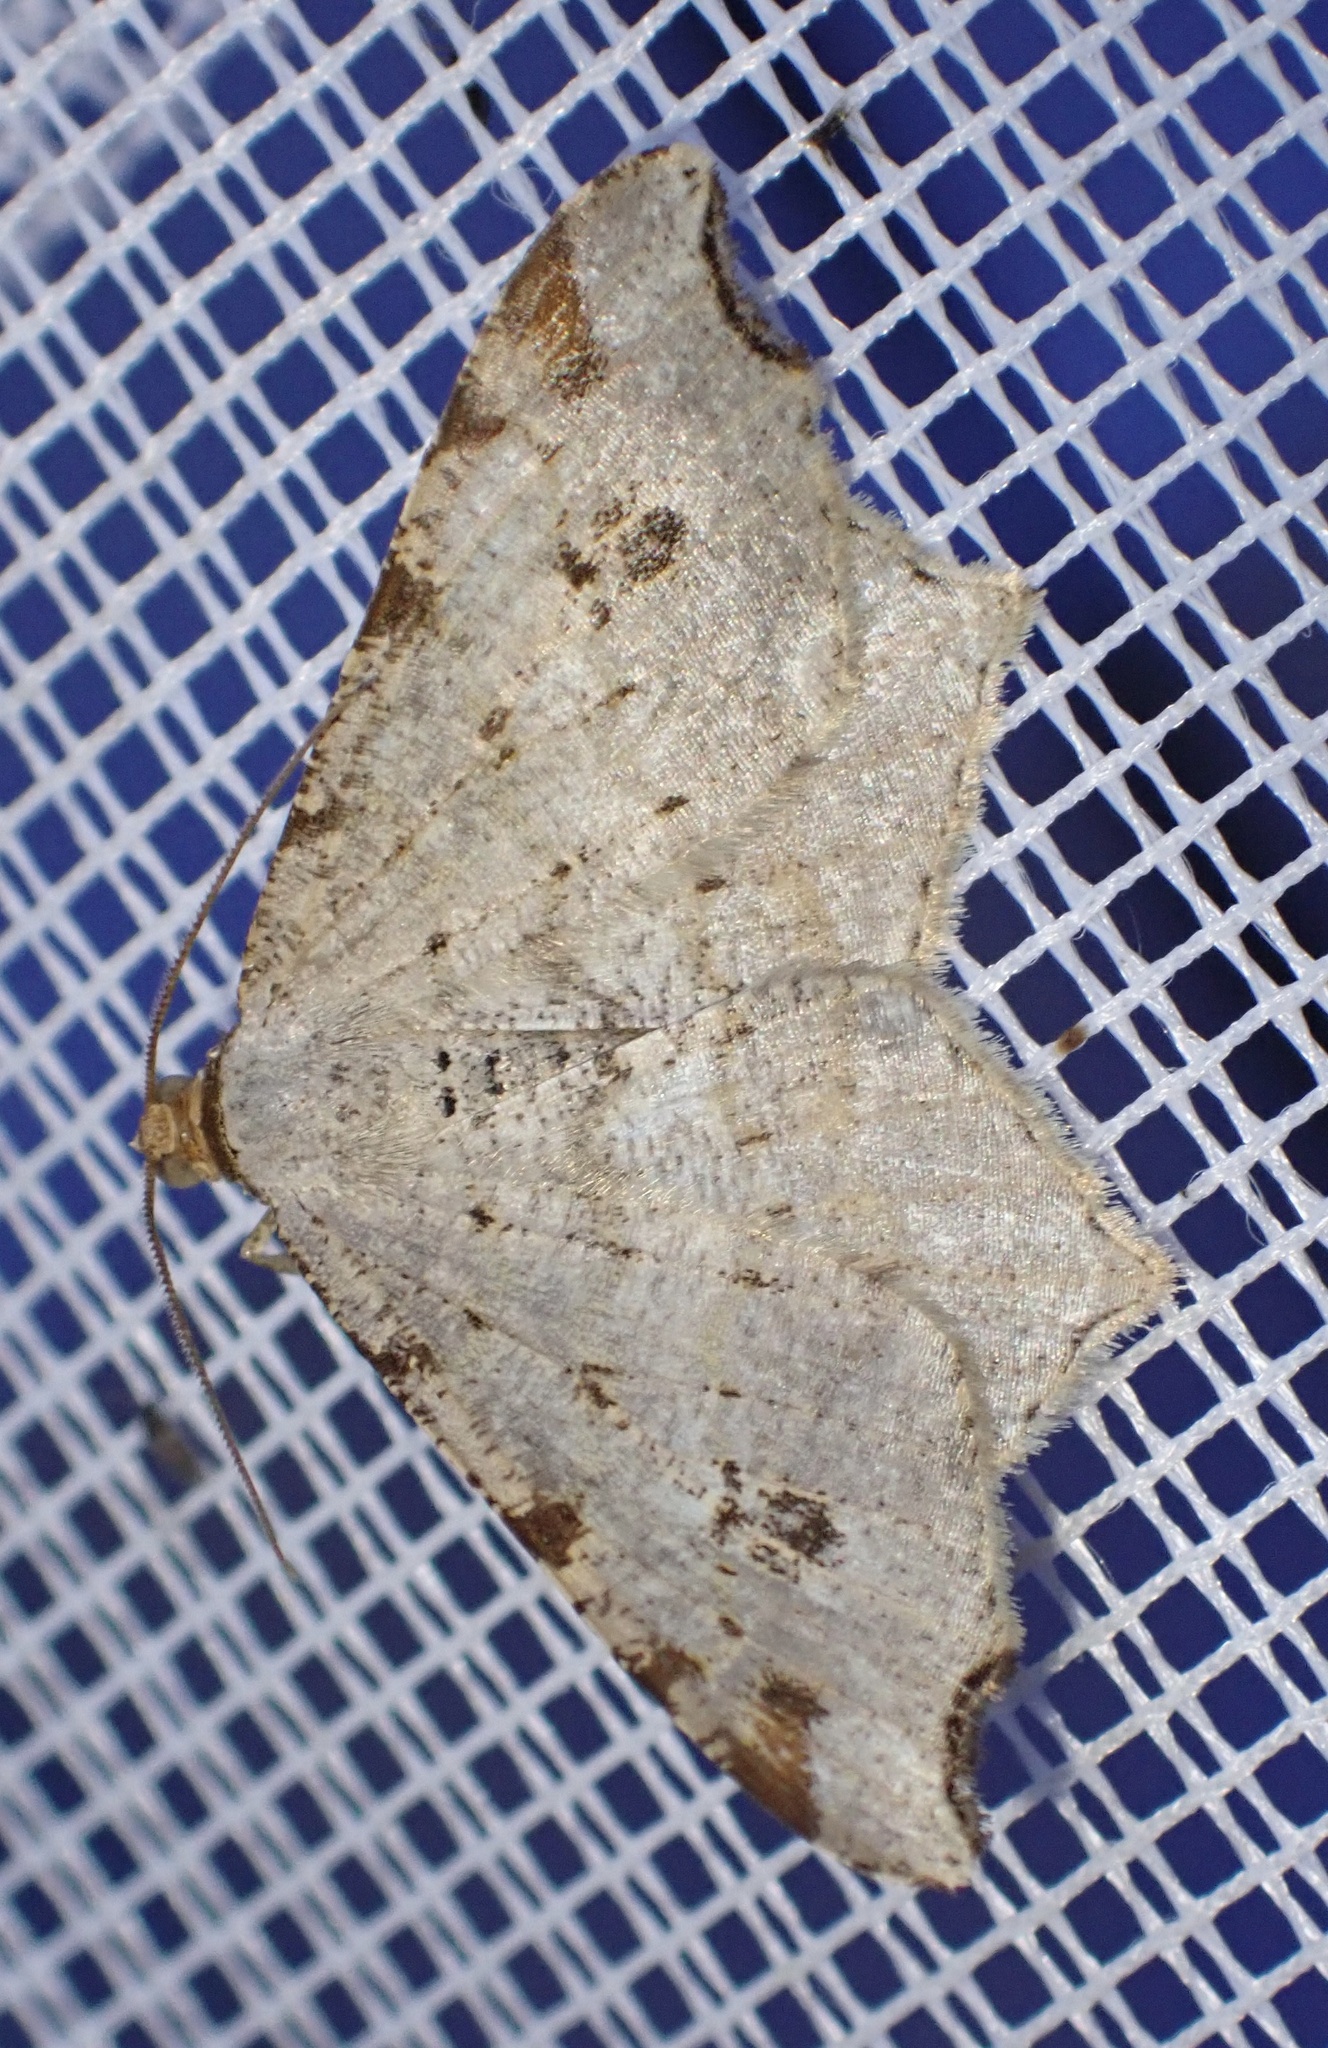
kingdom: Animalia
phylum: Arthropoda
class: Insecta
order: Lepidoptera
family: Geometridae
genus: Macaria
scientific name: Macaria alternata
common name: Sharp-angled peacock
